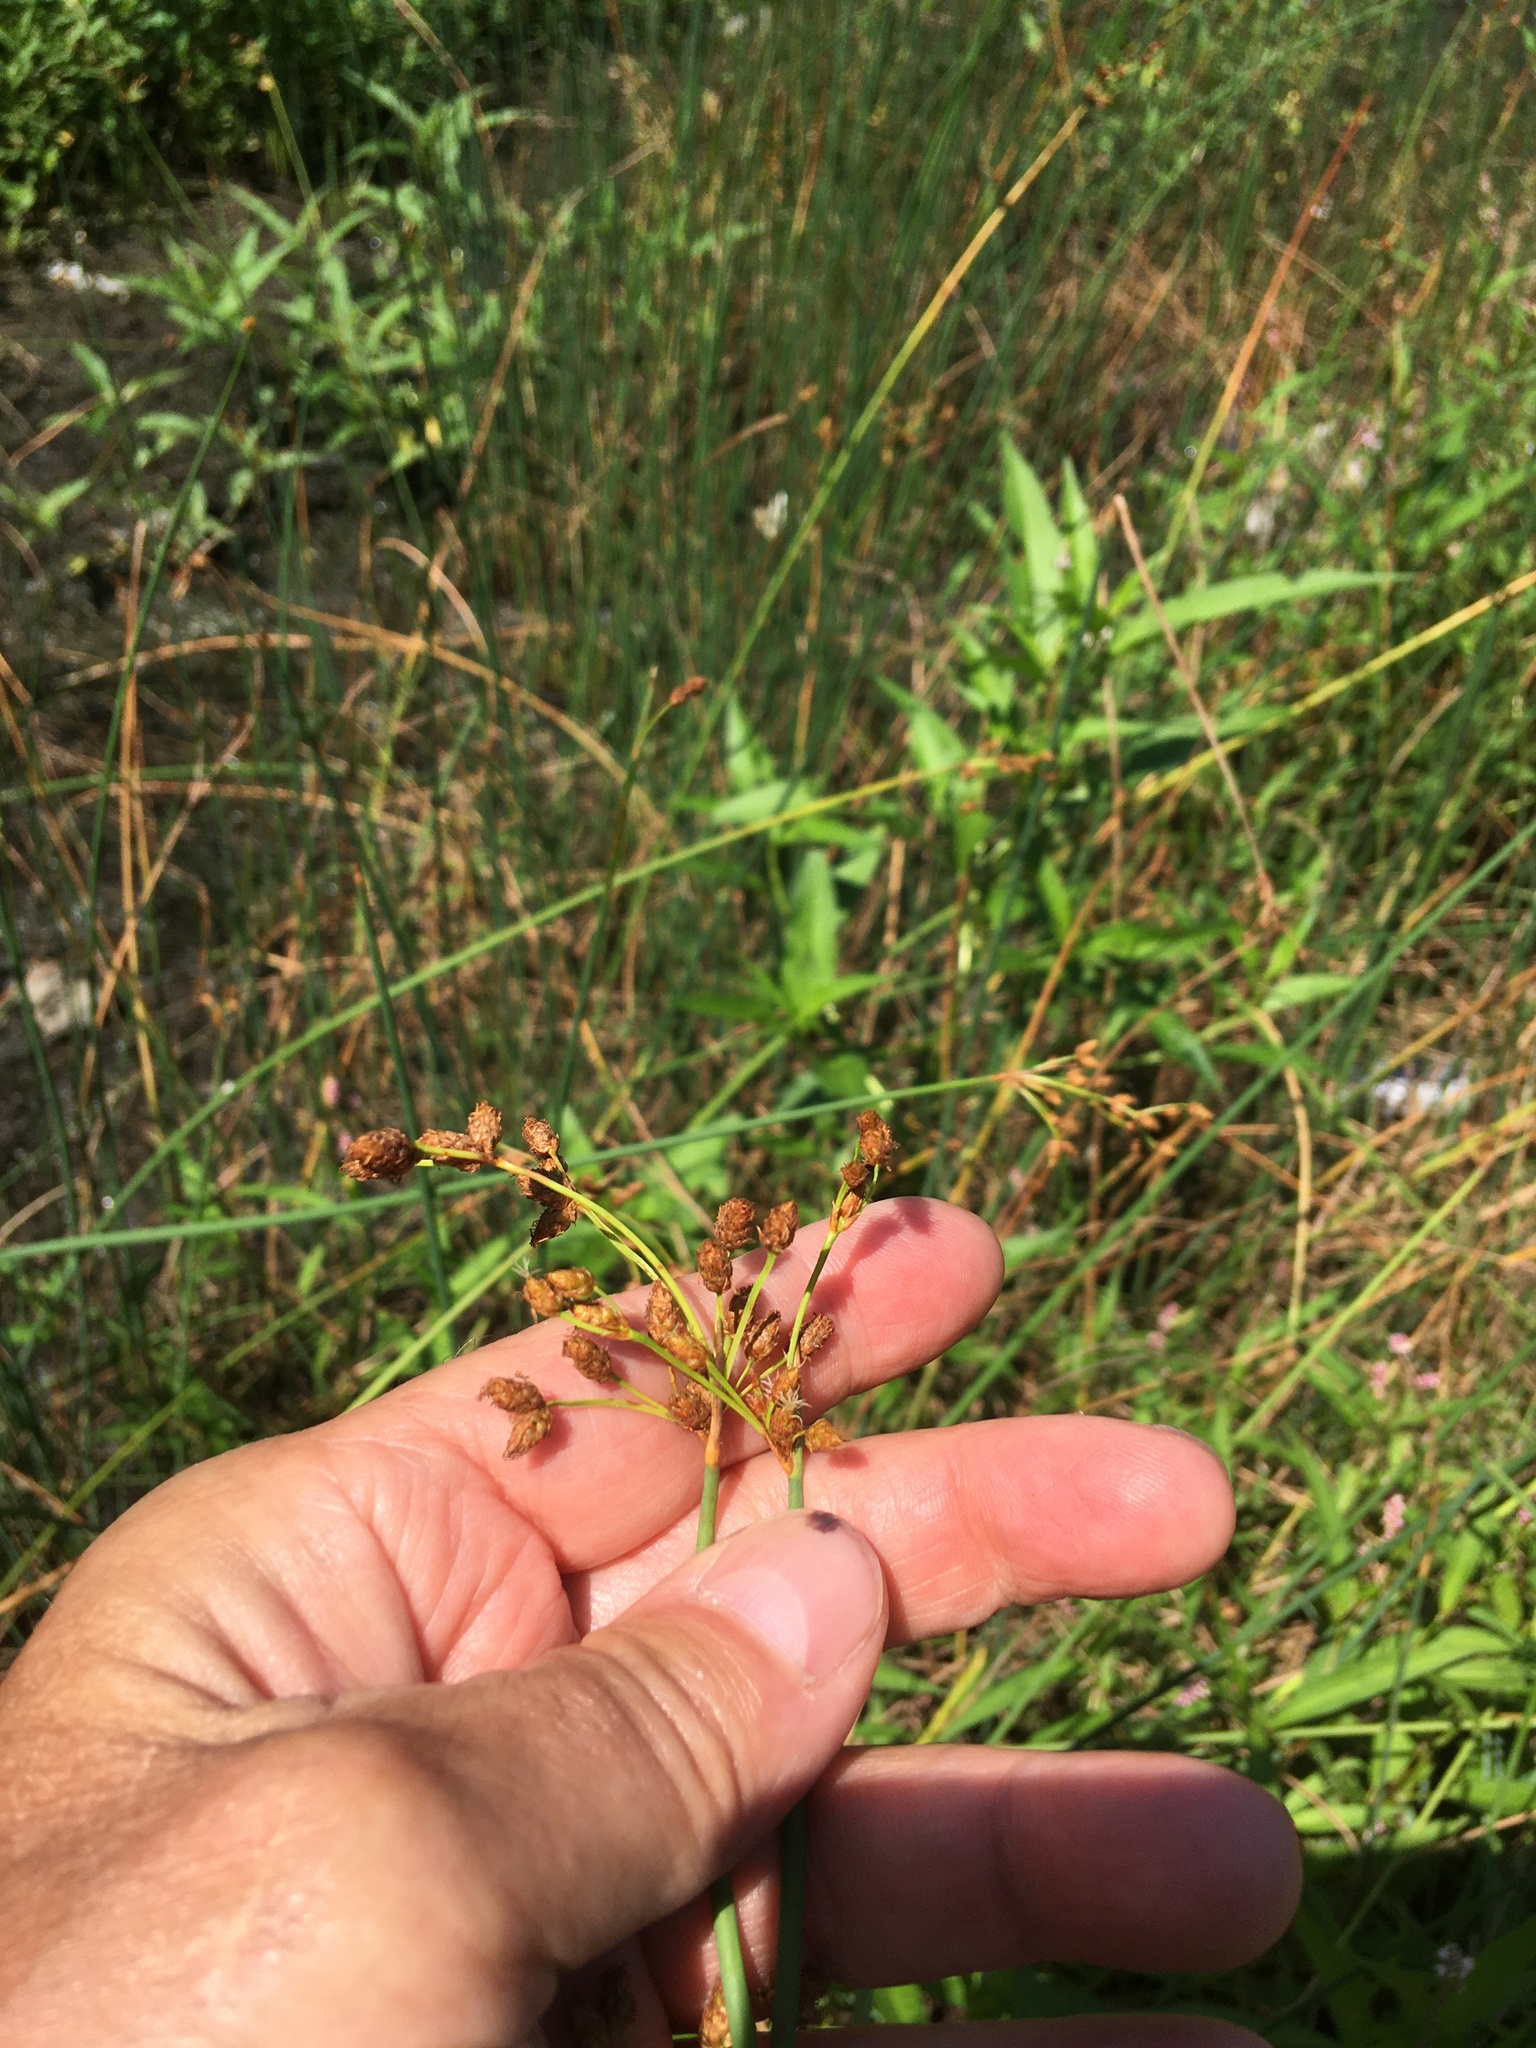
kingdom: Plantae
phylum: Tracheophyta
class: Liliopsida
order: Poales
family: Cyperaceae
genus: Scirpus
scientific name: Scirpus pendulus
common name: Nodding bulrush
